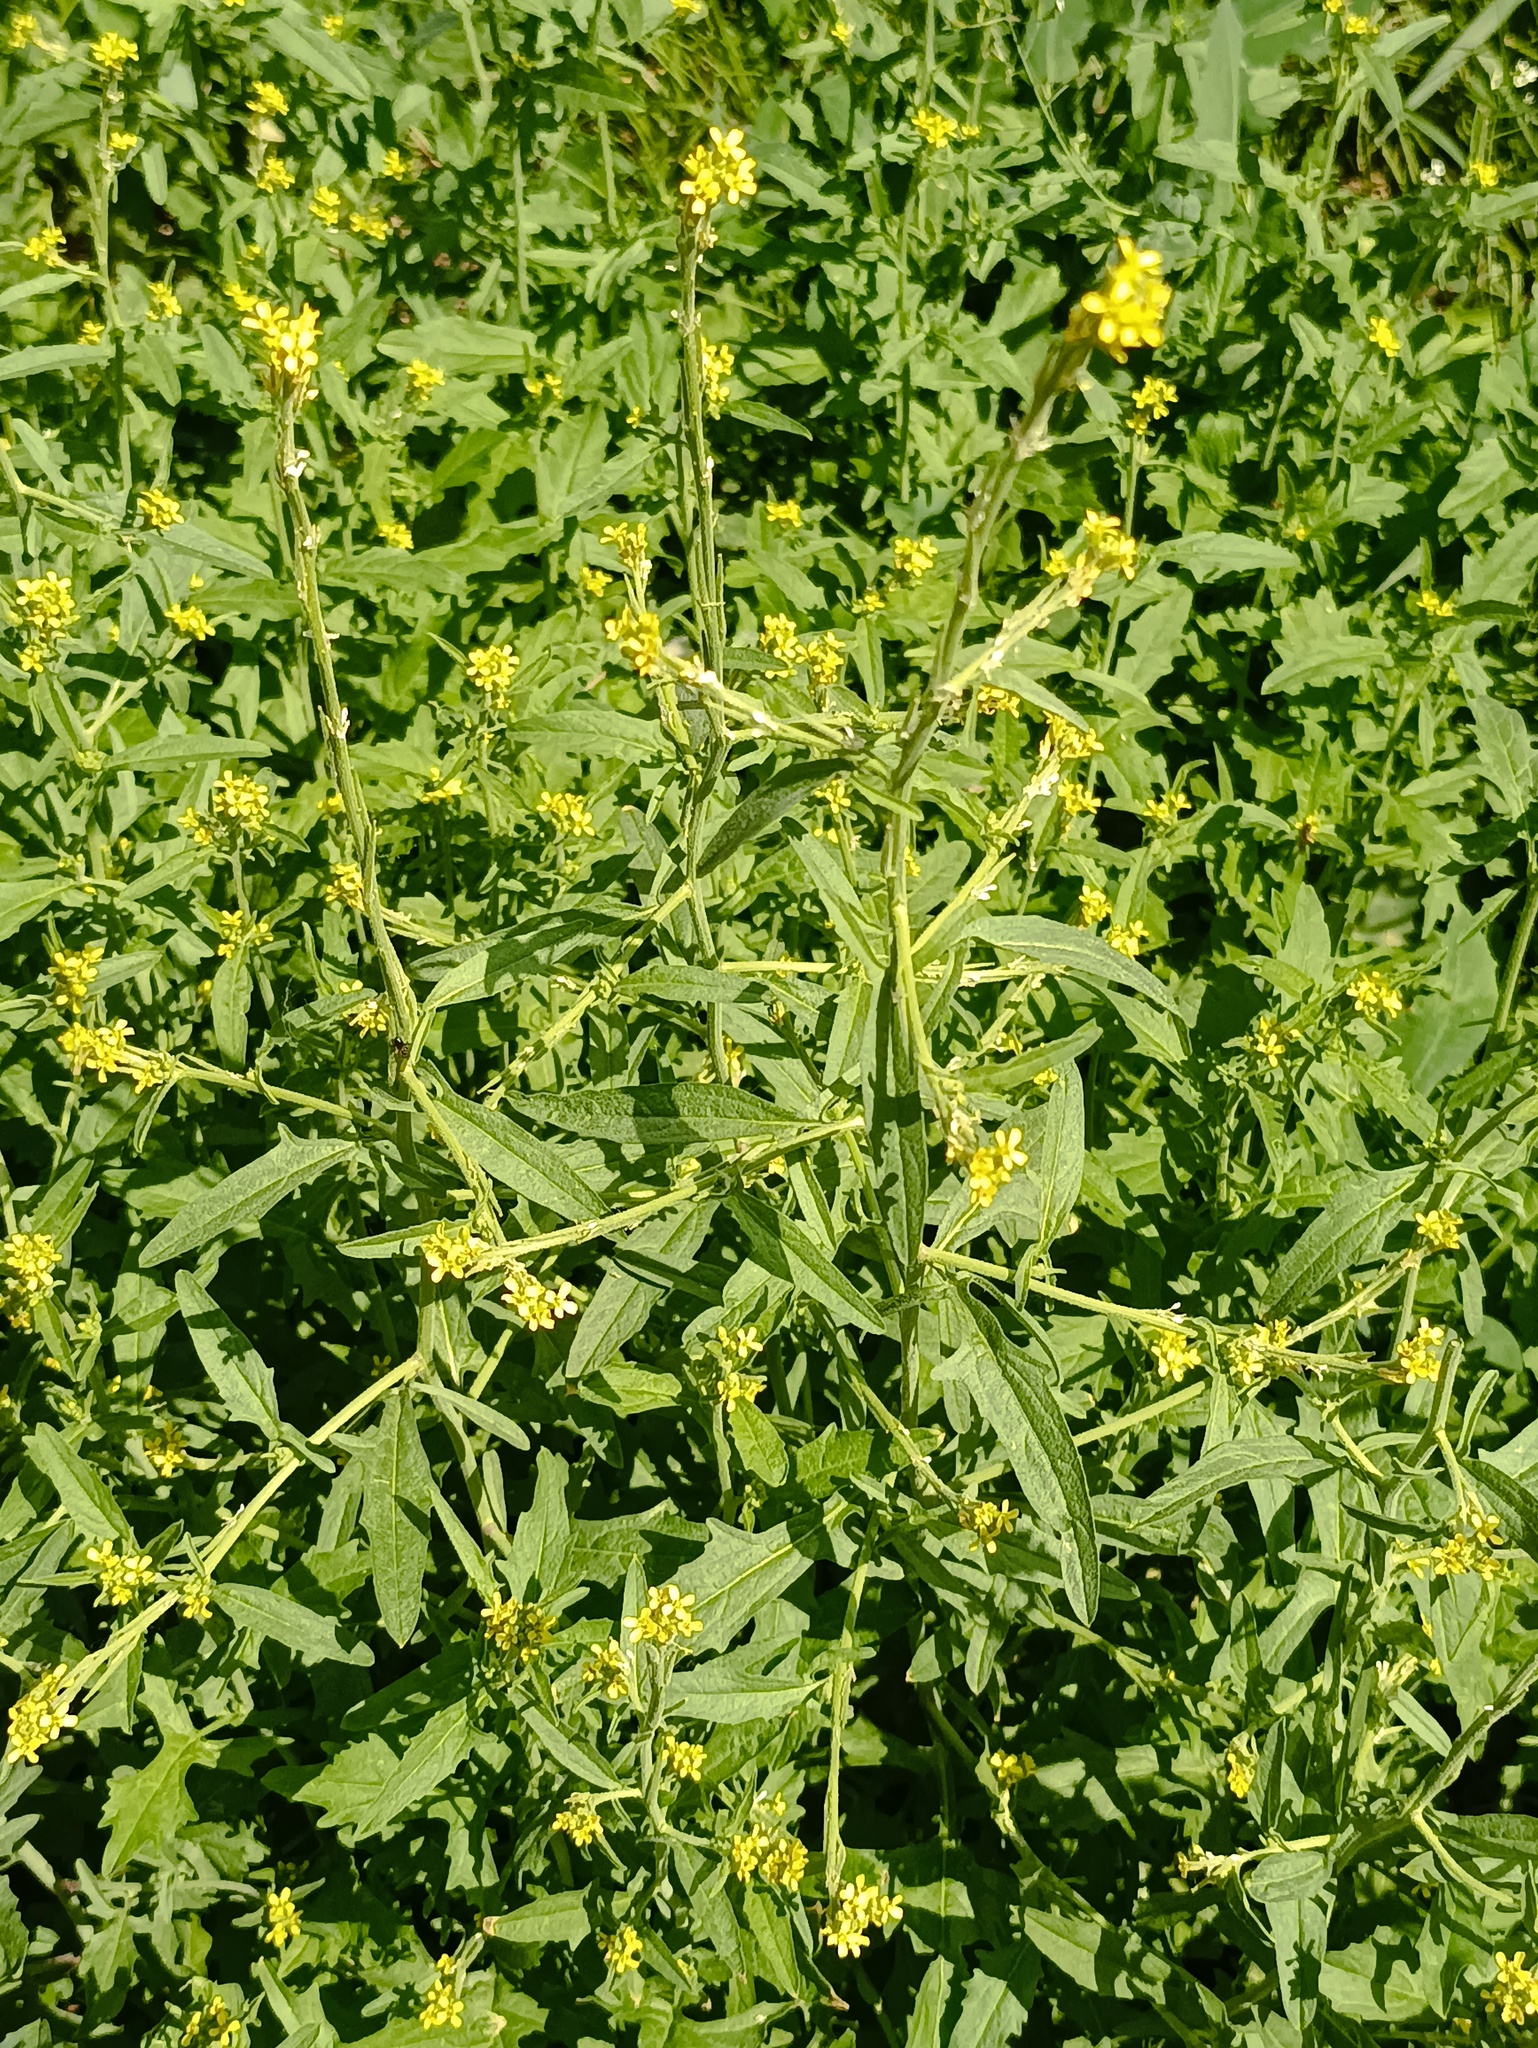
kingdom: Plantae
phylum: Tracheophyta
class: Magnoliopsida
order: Brassicales
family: Brassicaceae
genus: Sisymbrium
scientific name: Sisymbrium officinale
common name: Hedge mustard
